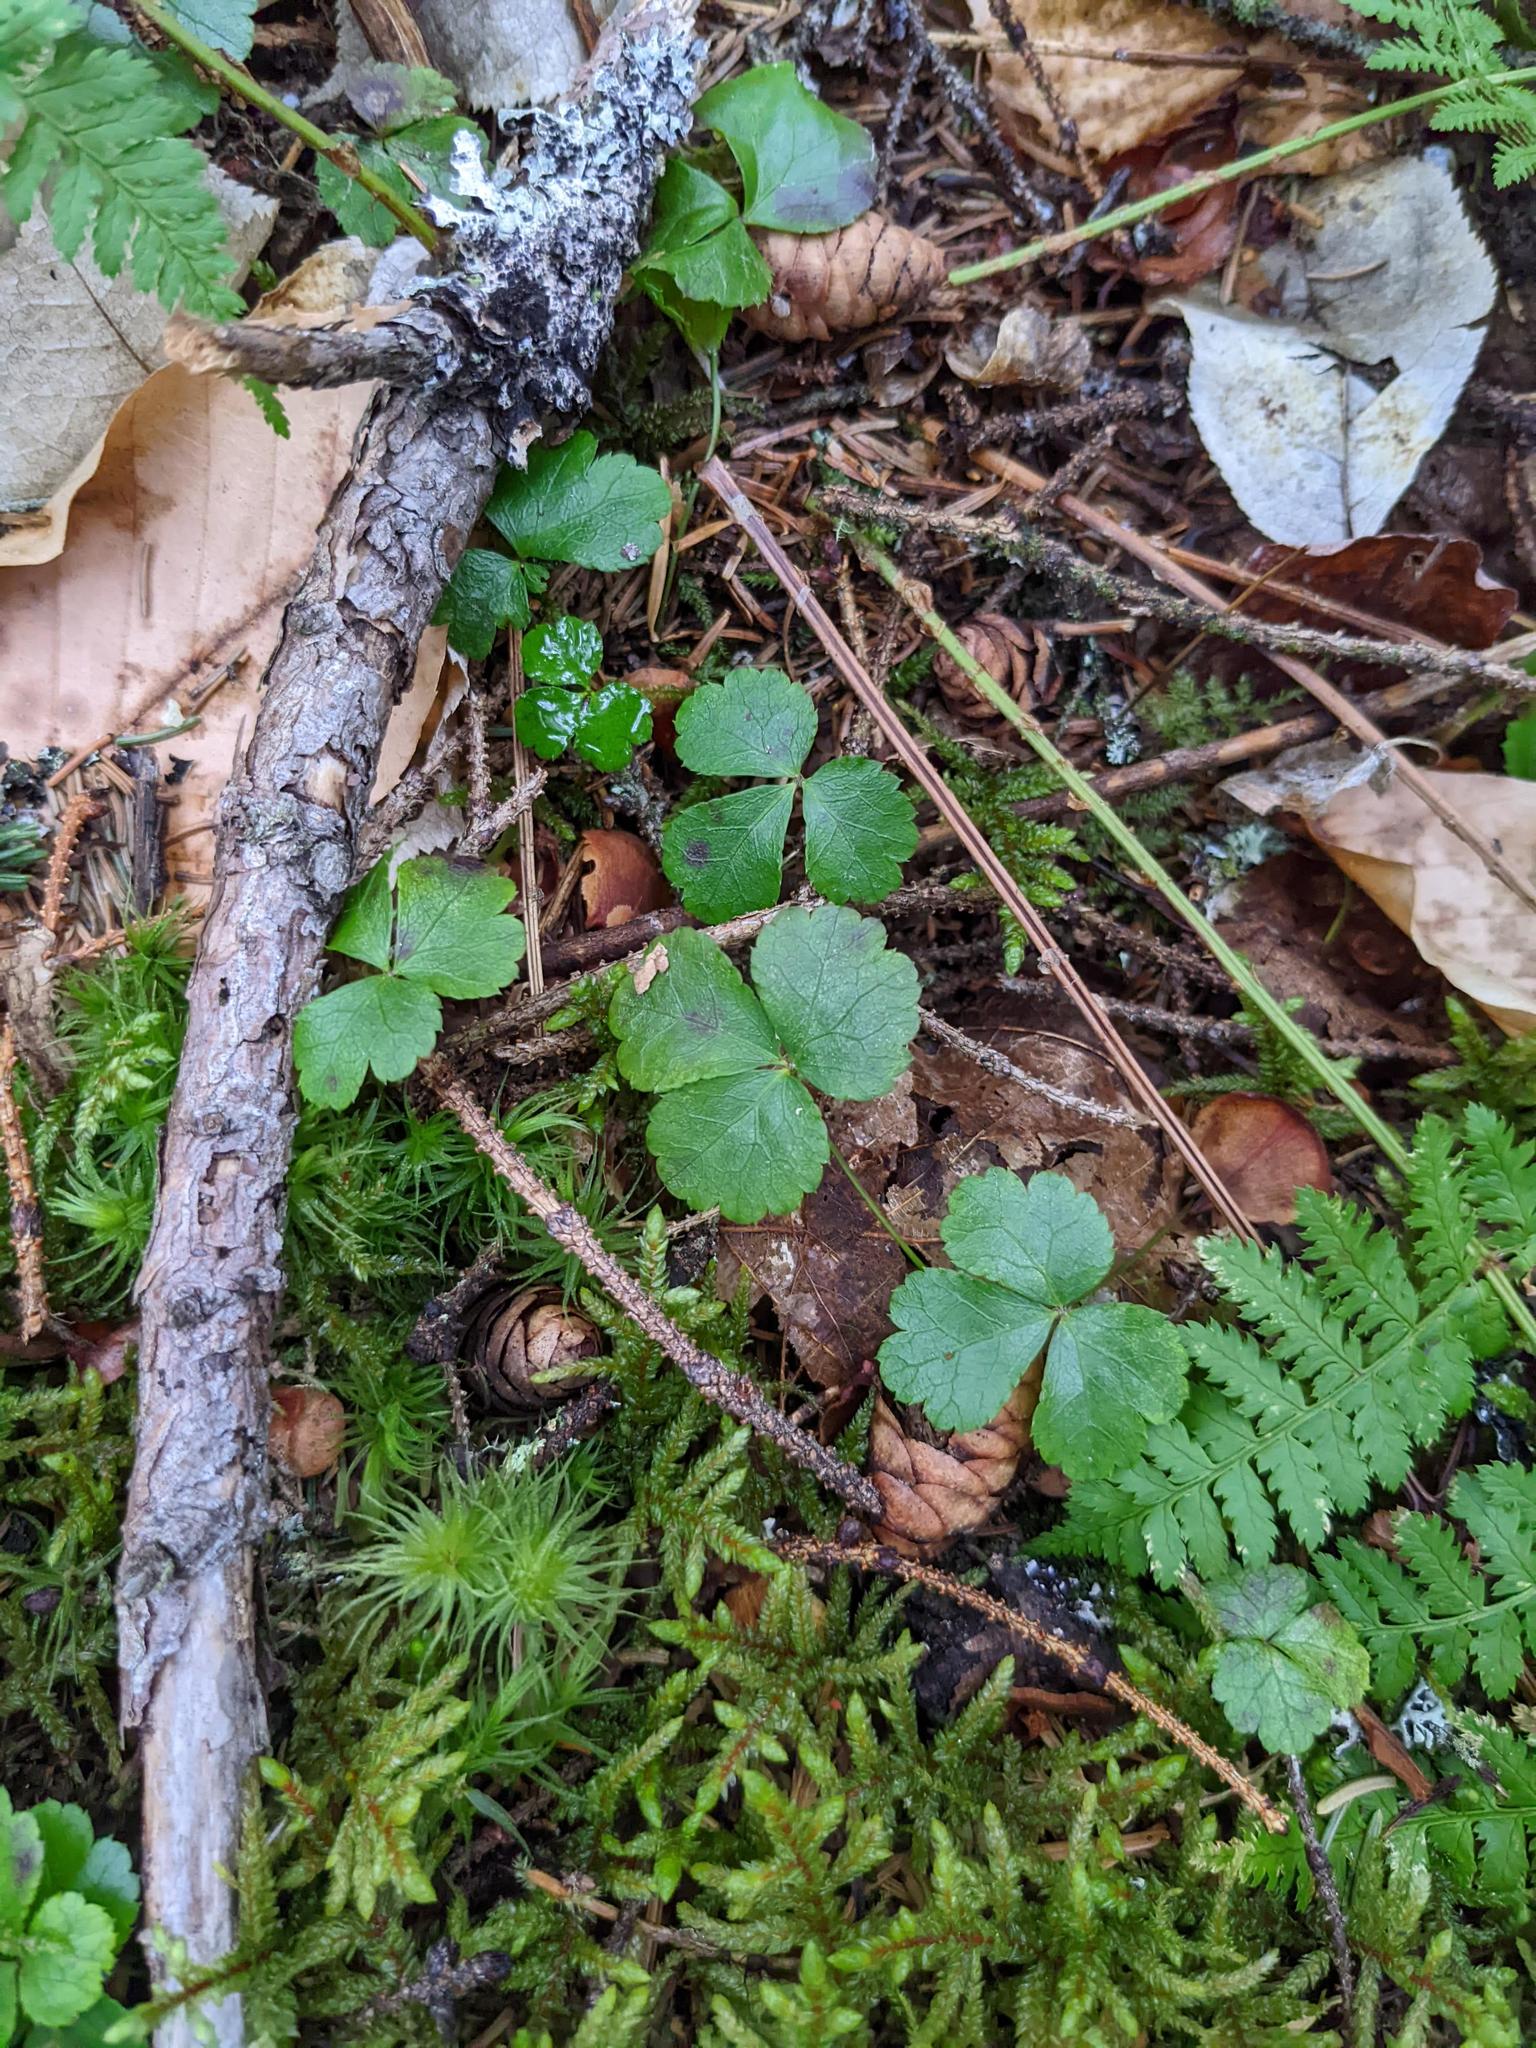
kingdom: Plantae
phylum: Tracheophyta
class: Magnoliopsida
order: Ranunculales
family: Ranunculaceae
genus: Coptis
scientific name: Coptis trifolia
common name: Canker-root
